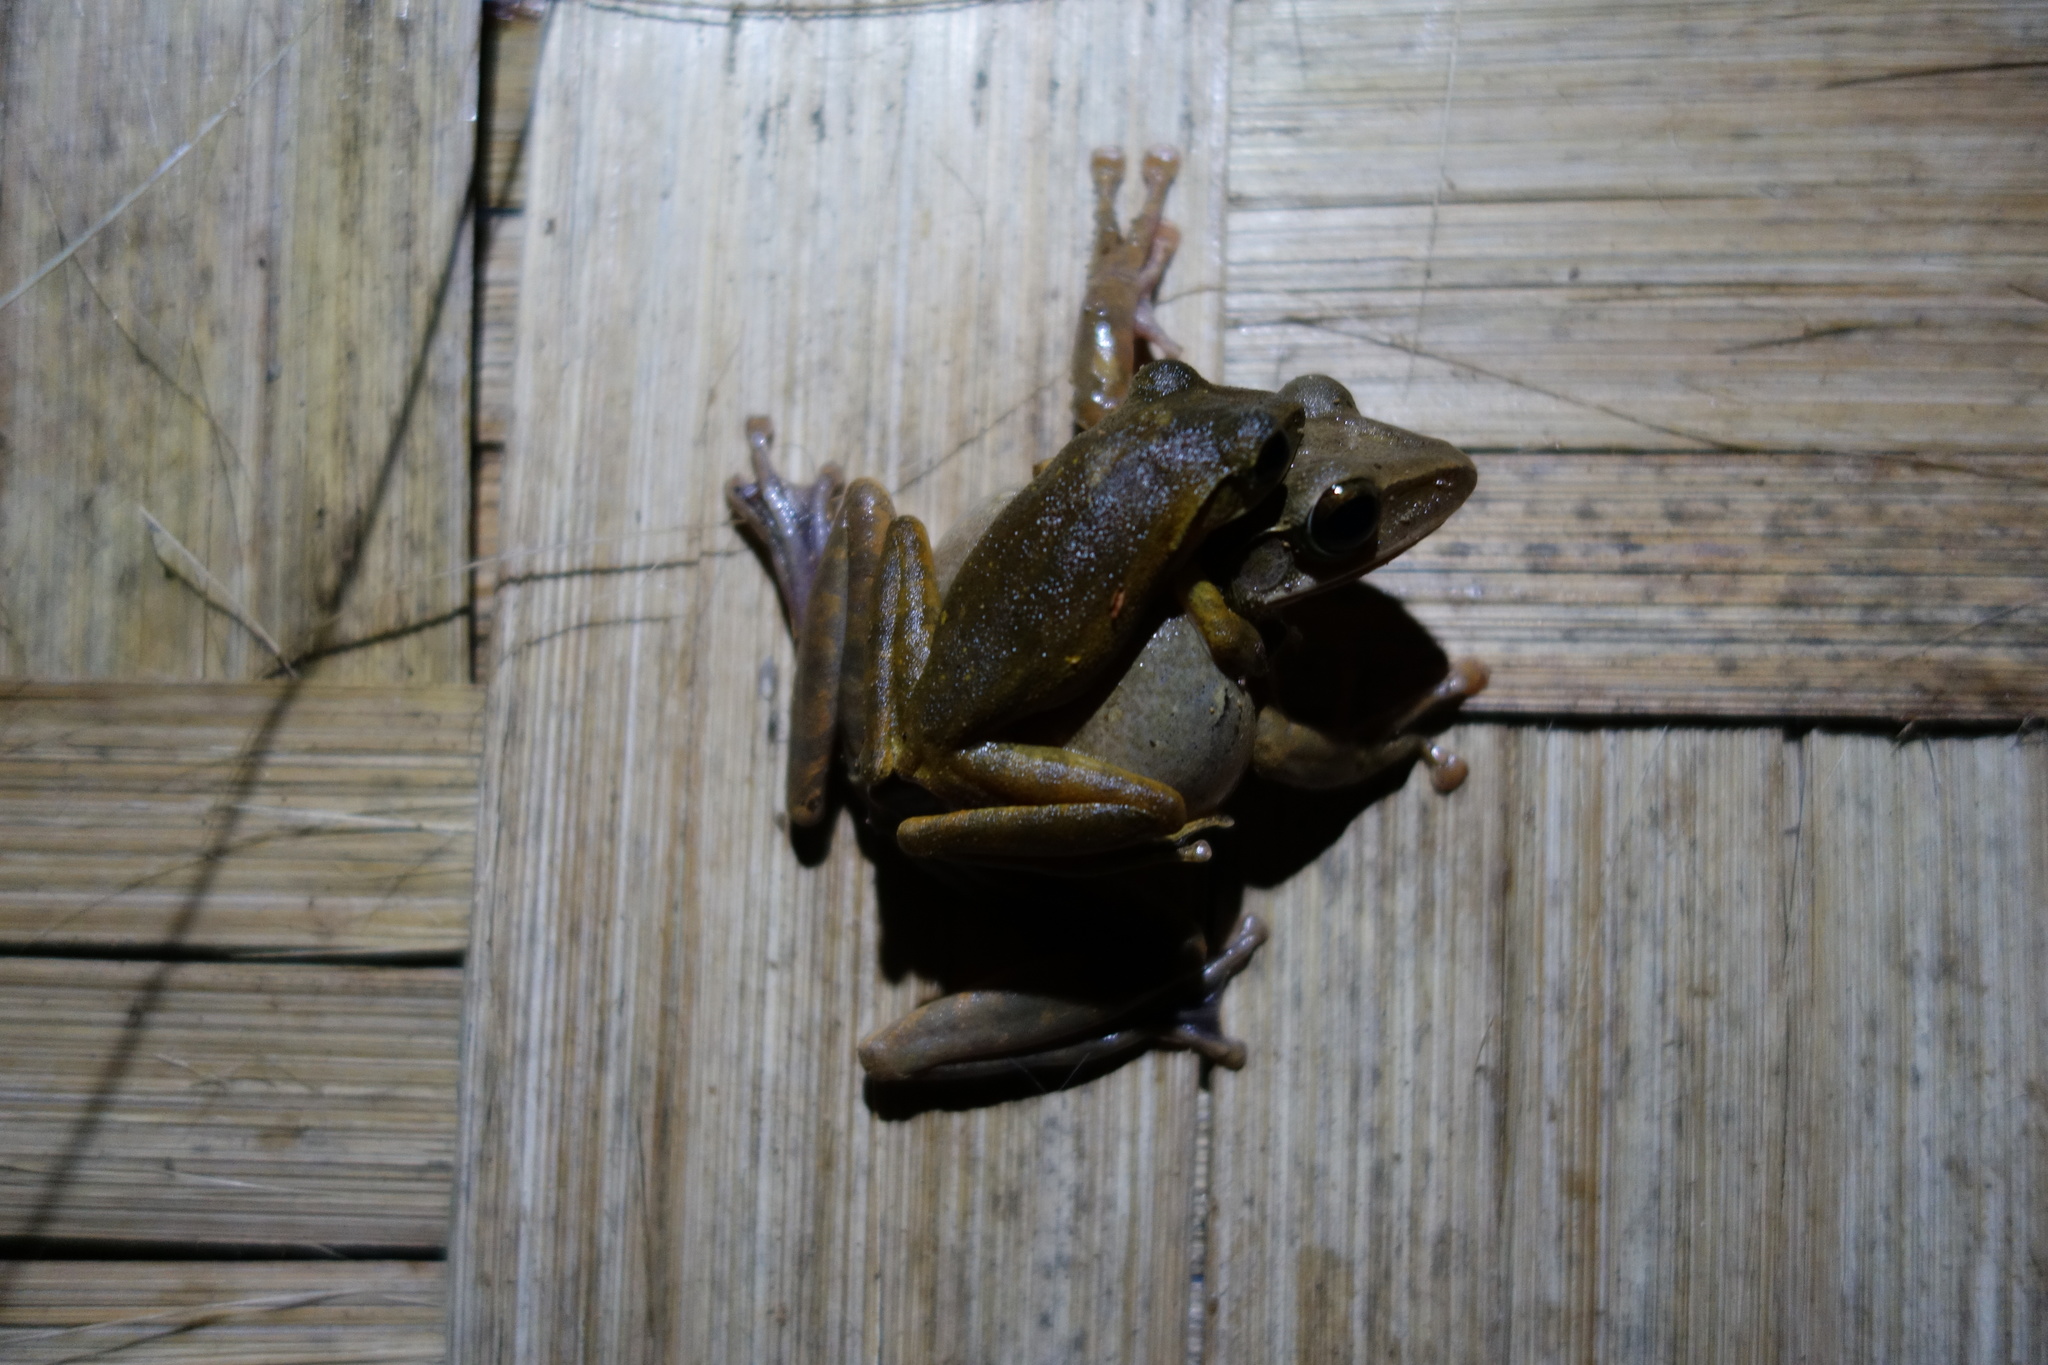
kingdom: Animalia
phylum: Chordata
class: Amphibia
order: Anura
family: Rhacophoridae
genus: Polypedates
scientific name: Polypedates leucomystax
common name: Common tree frog/four-lined tree frog
